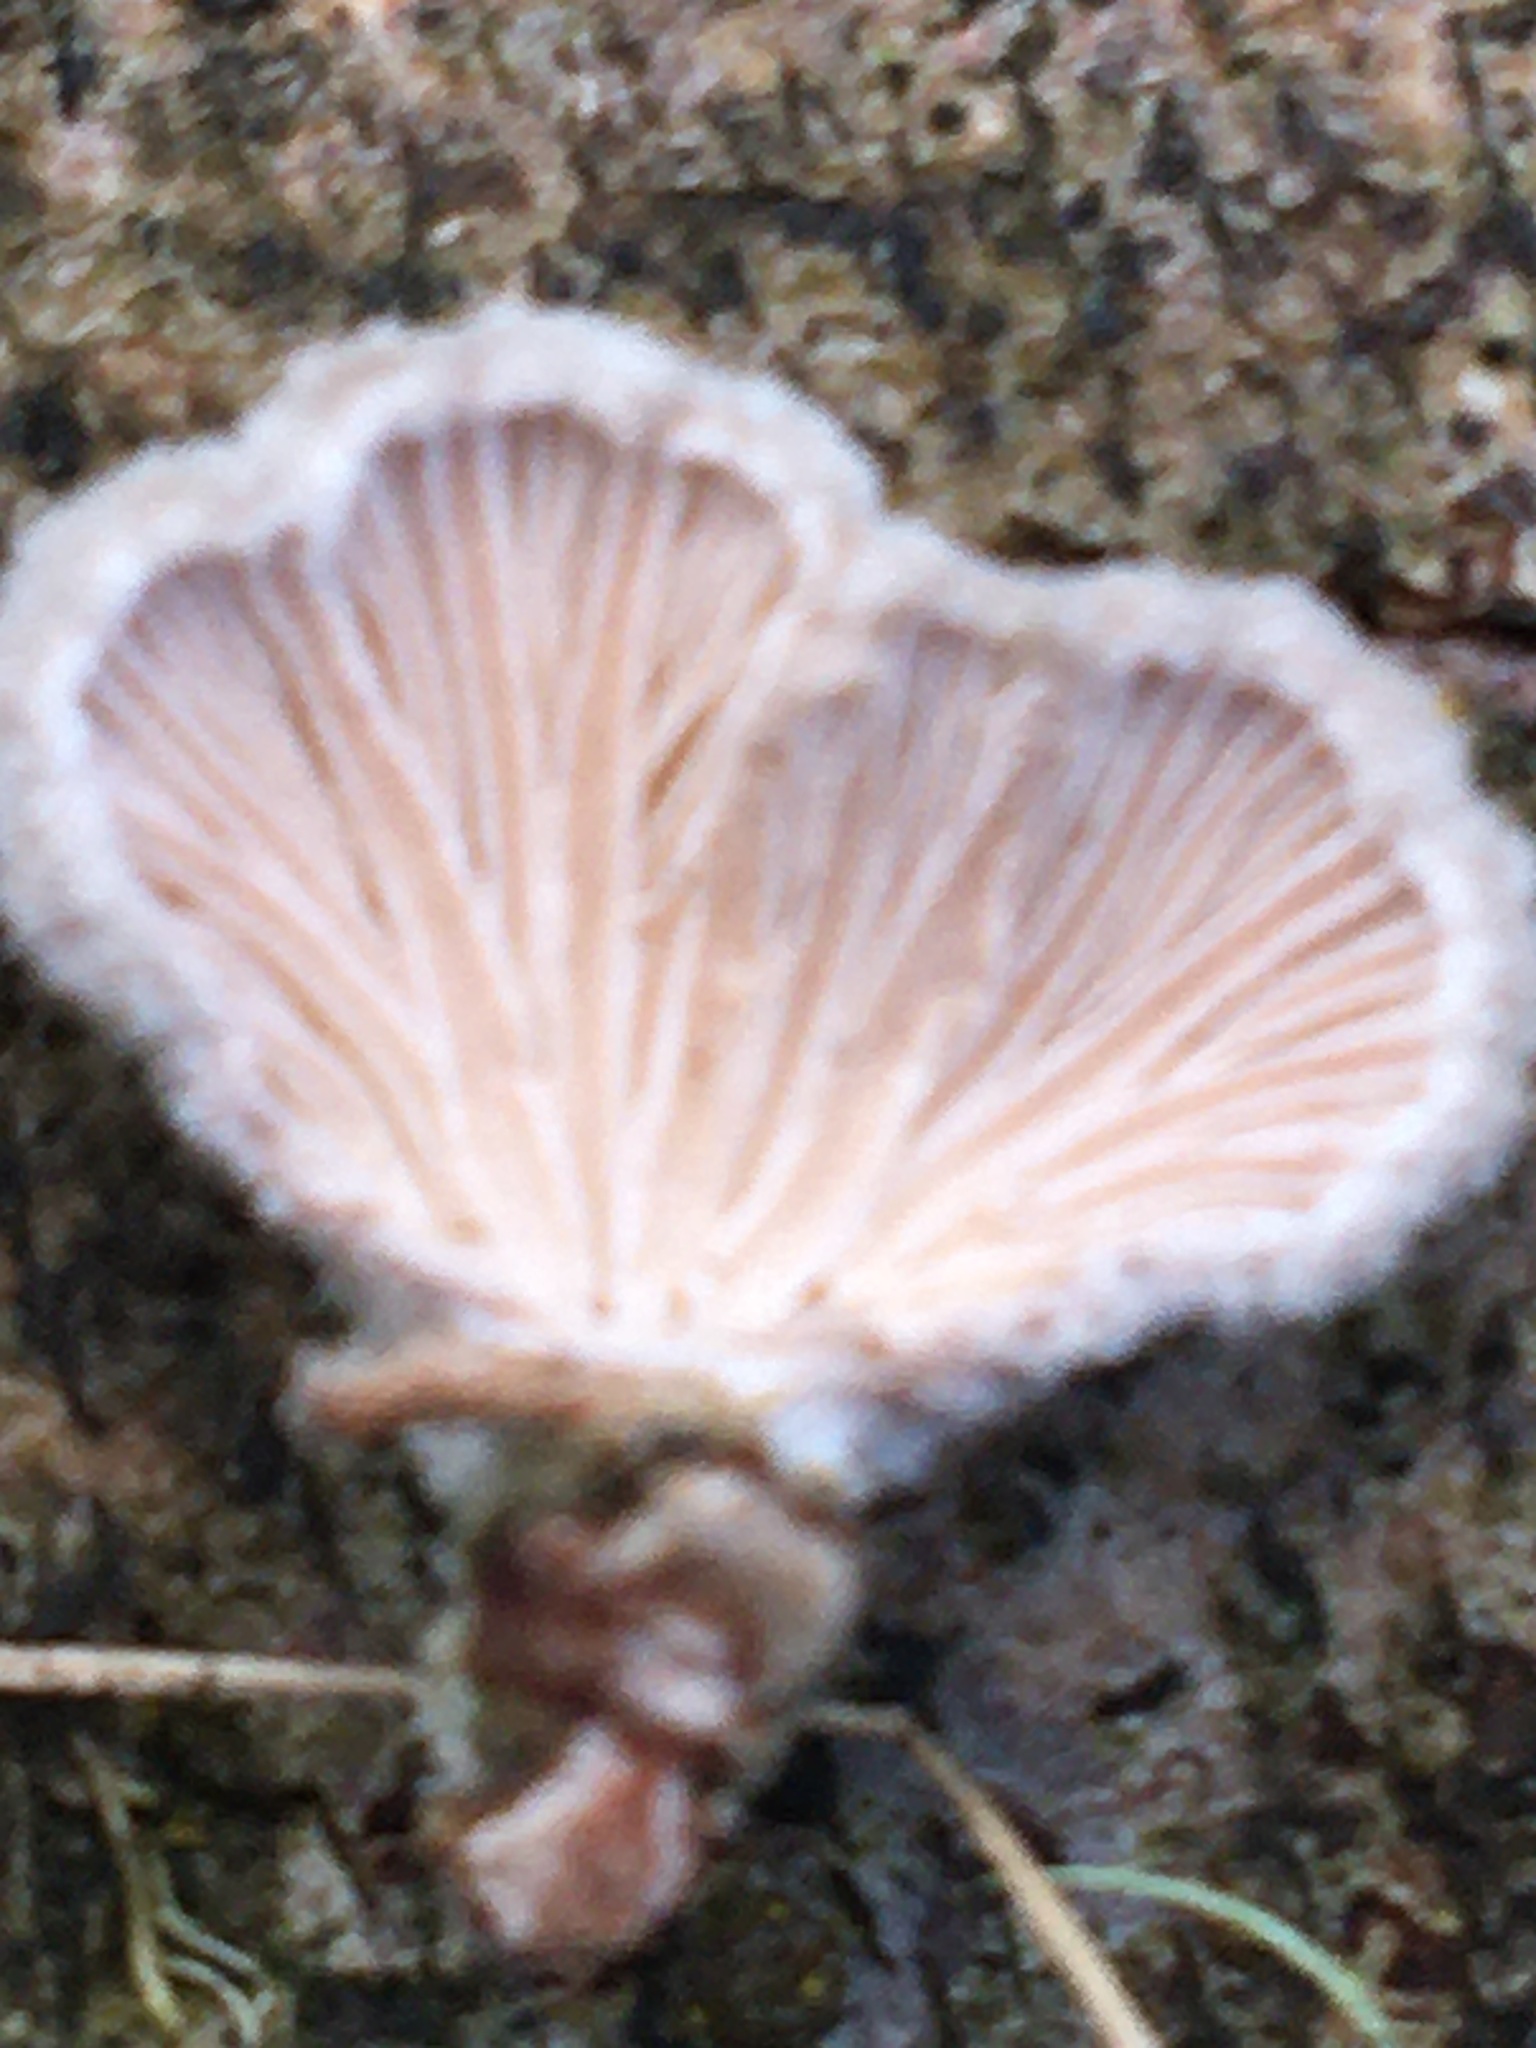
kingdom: Fungi
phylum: Basidiomycota
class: Agaricomycetes
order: Agaricales
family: Schizophyllaceae
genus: Schizophyllum
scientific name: Schizophyllum commune
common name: Common porecrust
